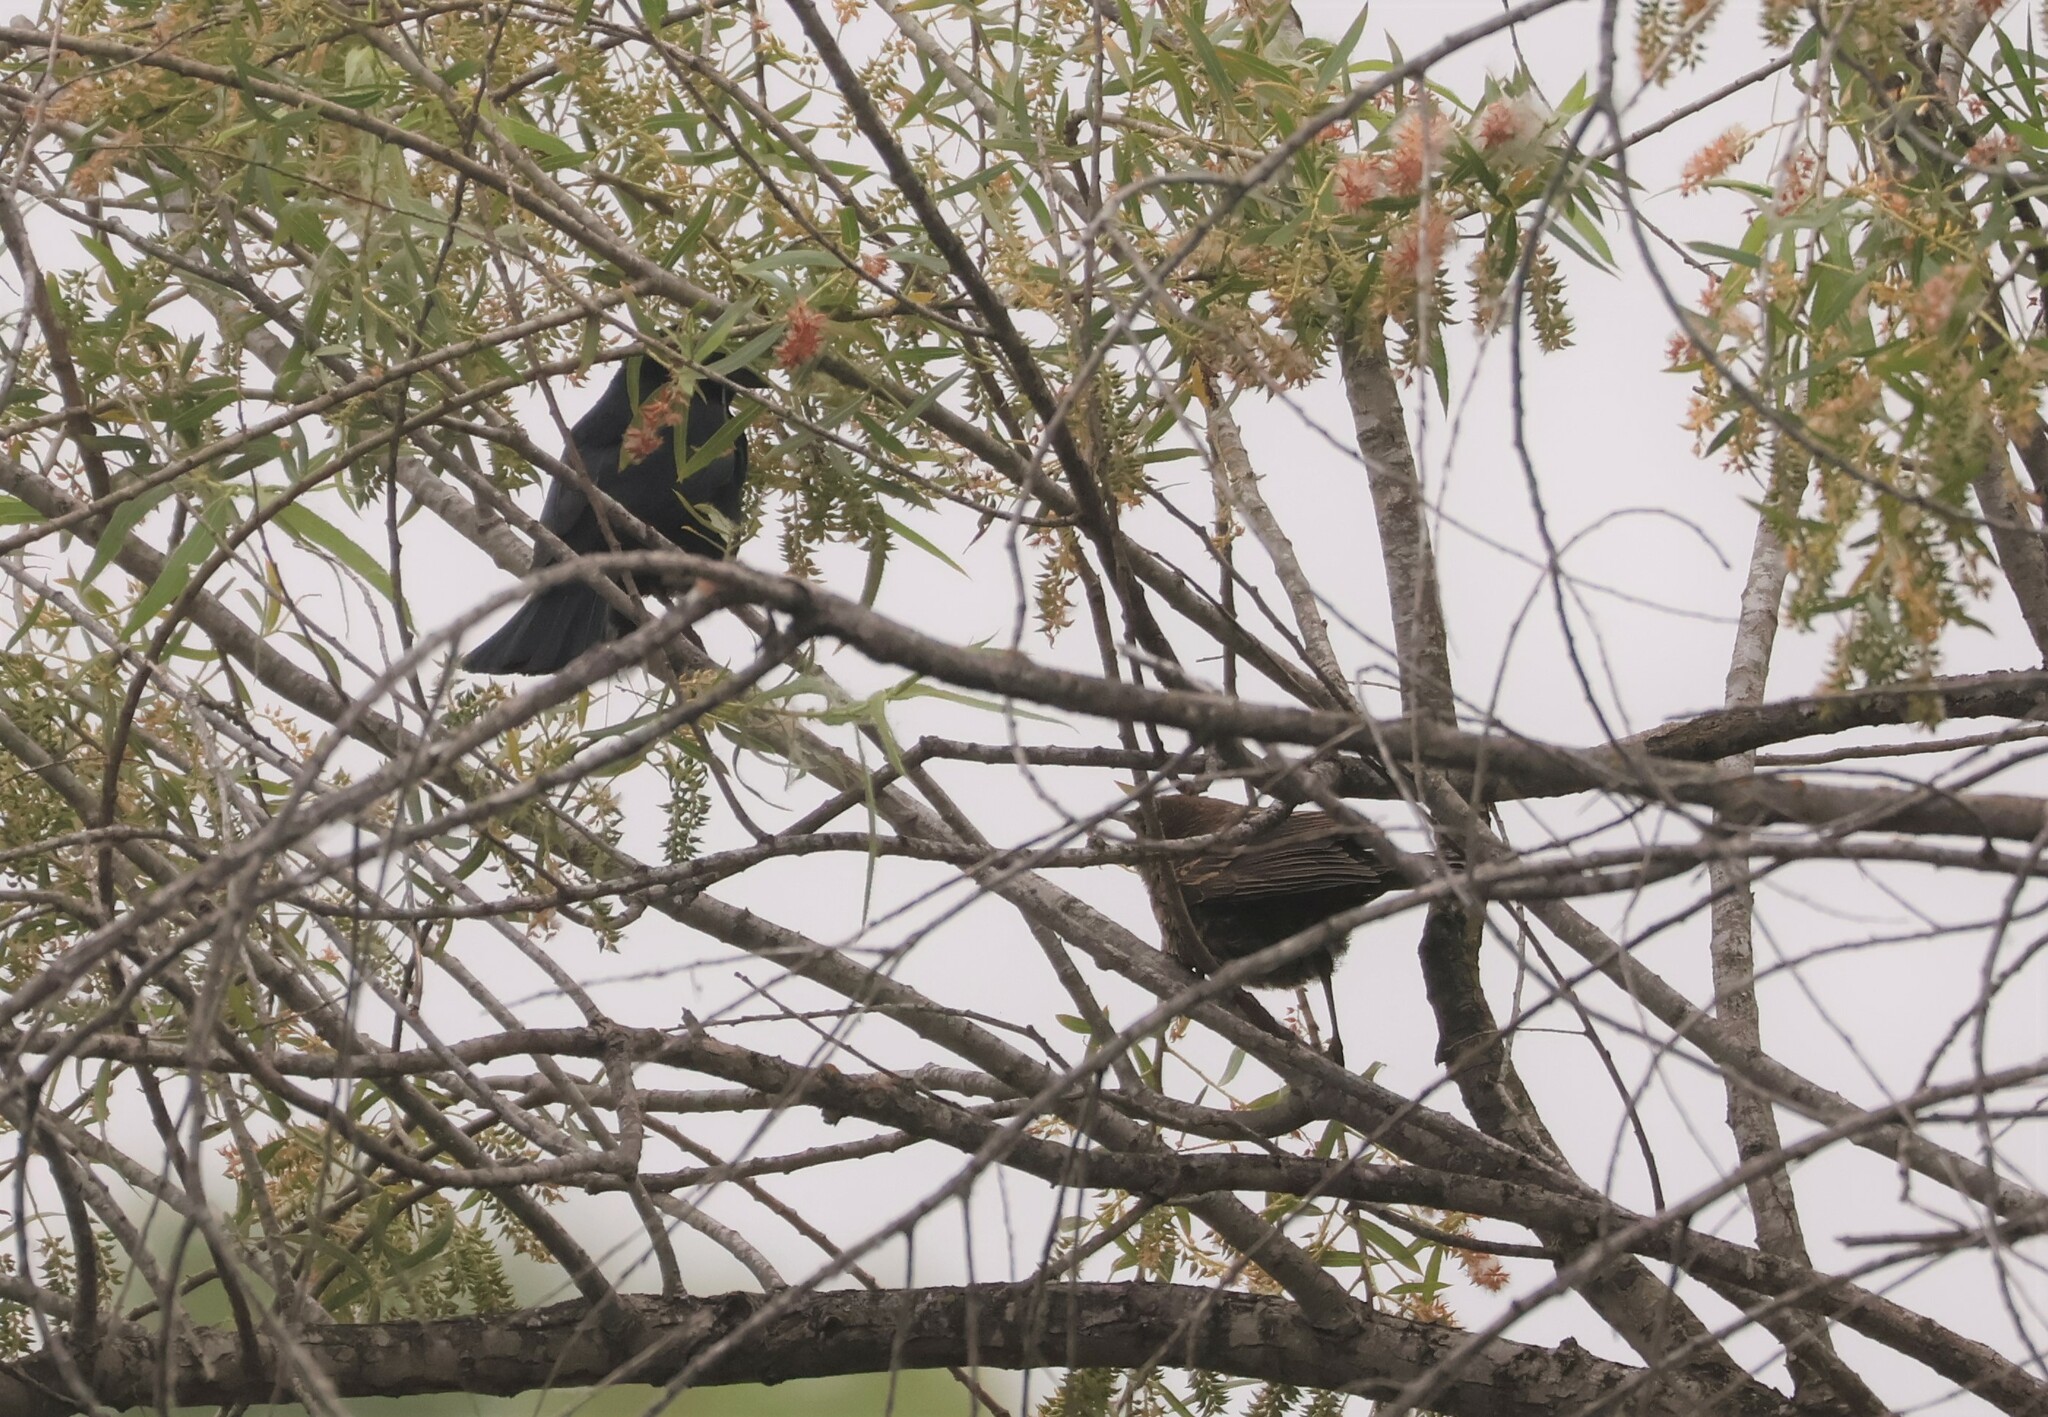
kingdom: Animalia
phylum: Chordata
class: Aves
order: Passeriformes
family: Icteridae
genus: Agelaius
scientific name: Agelaius phoeniceus
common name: Red-winged blackbird
